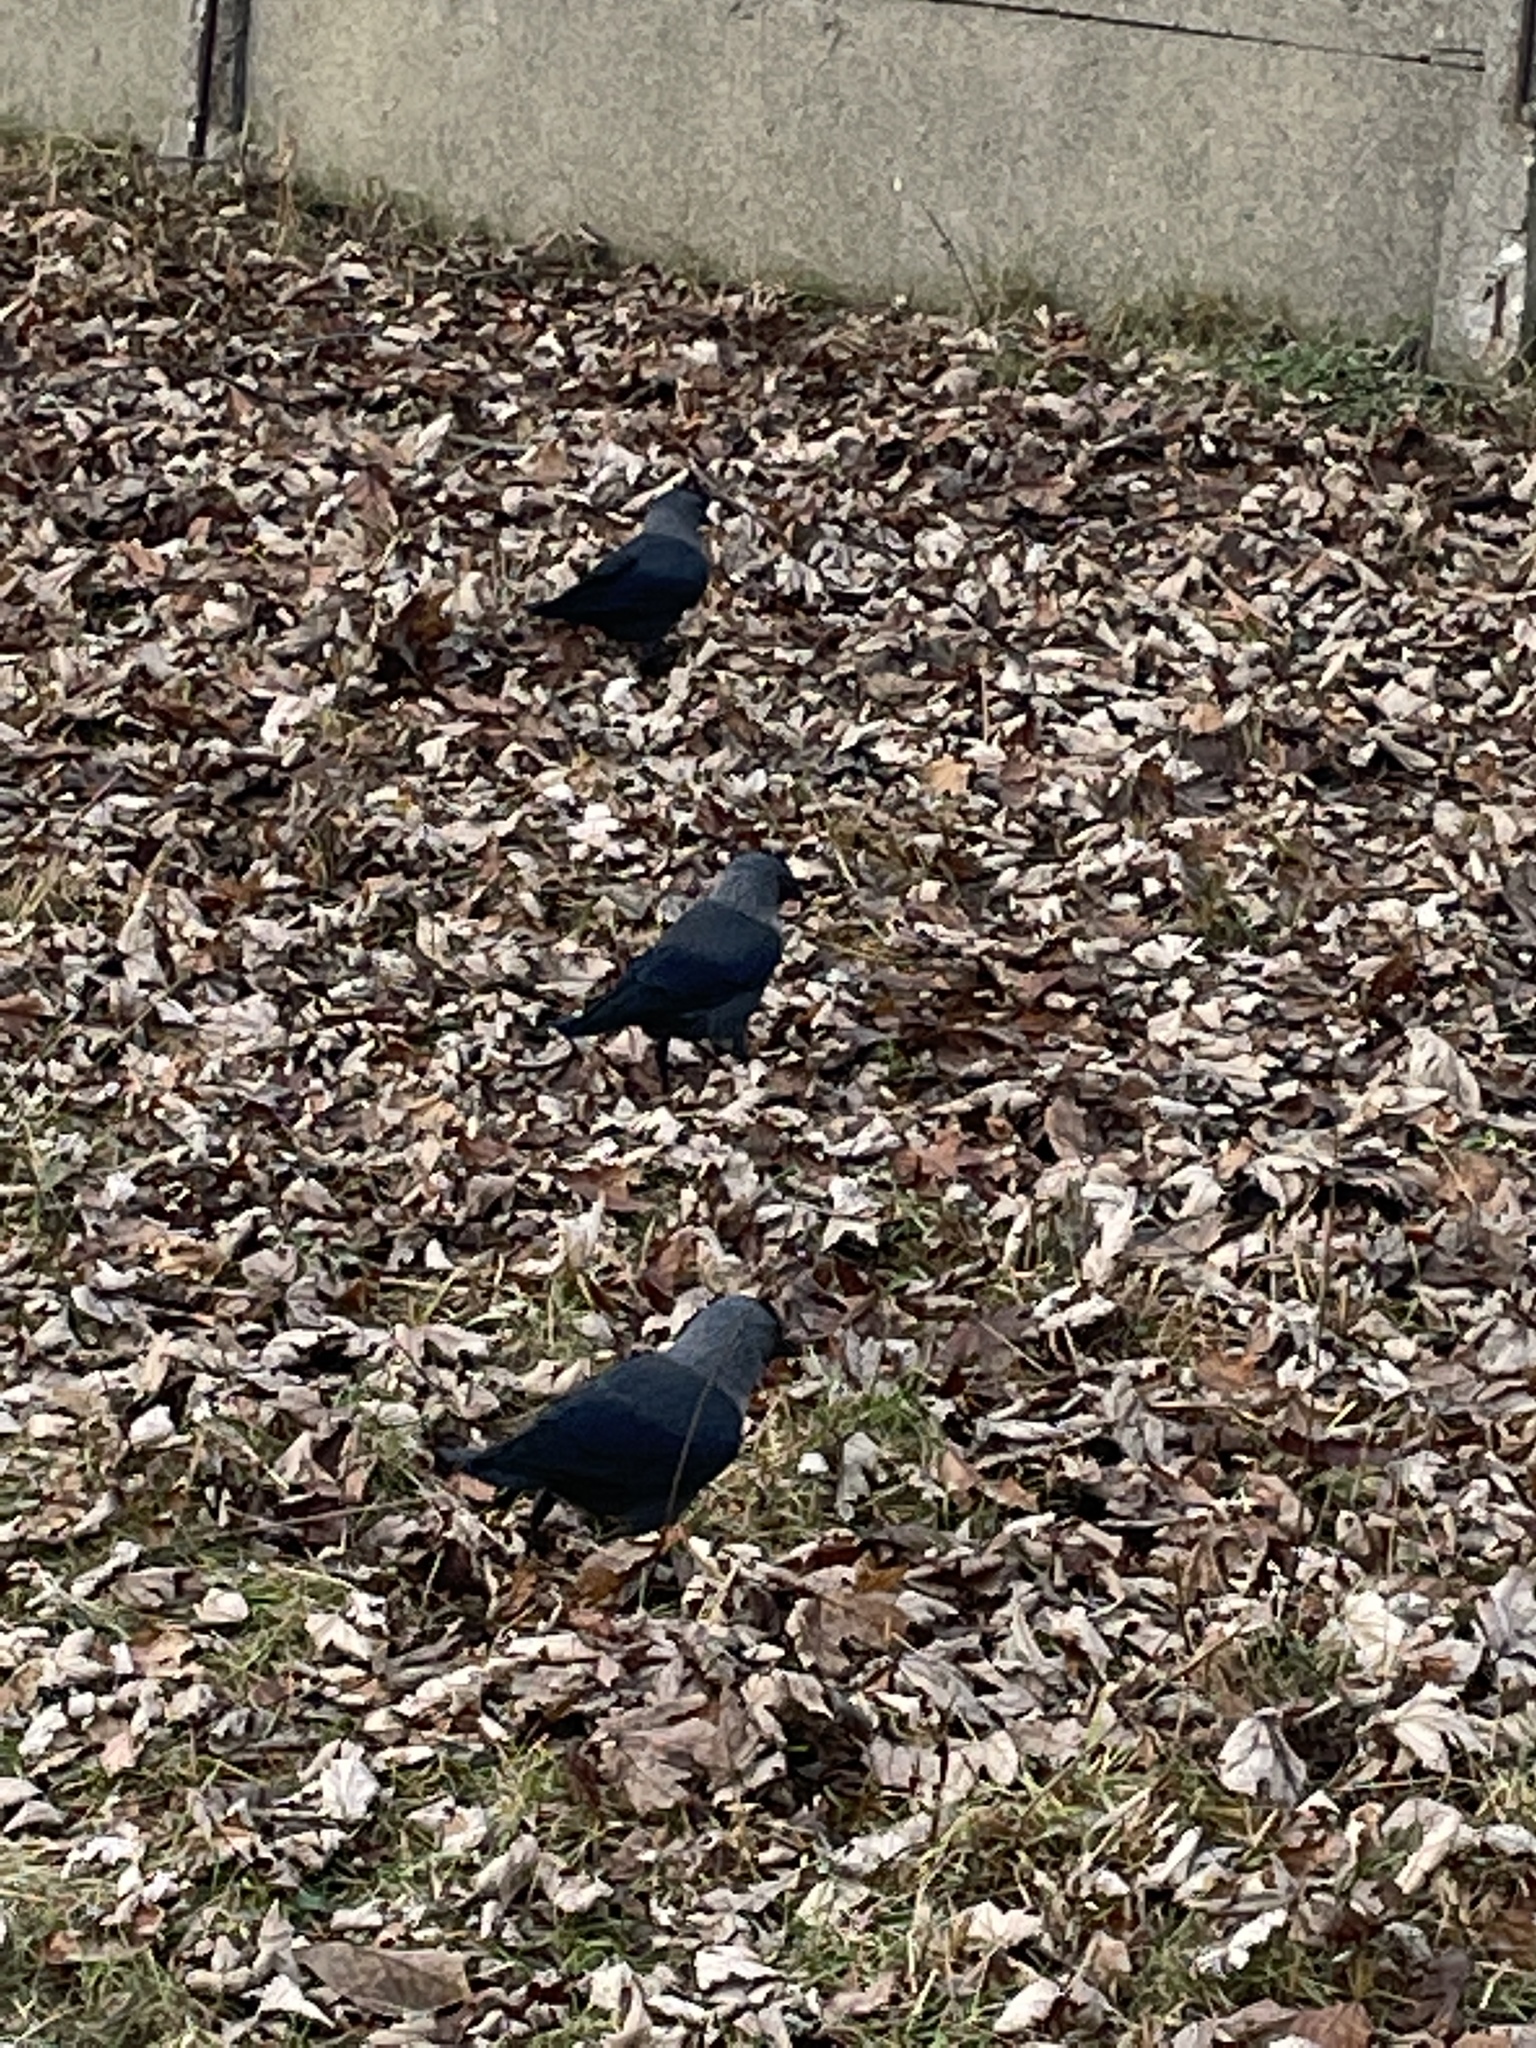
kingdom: Animalia
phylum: Chordata
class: Aves
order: Passeriformes
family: Corvidae
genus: Coloeus
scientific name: Coloeus monedula
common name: Western jackdaw
